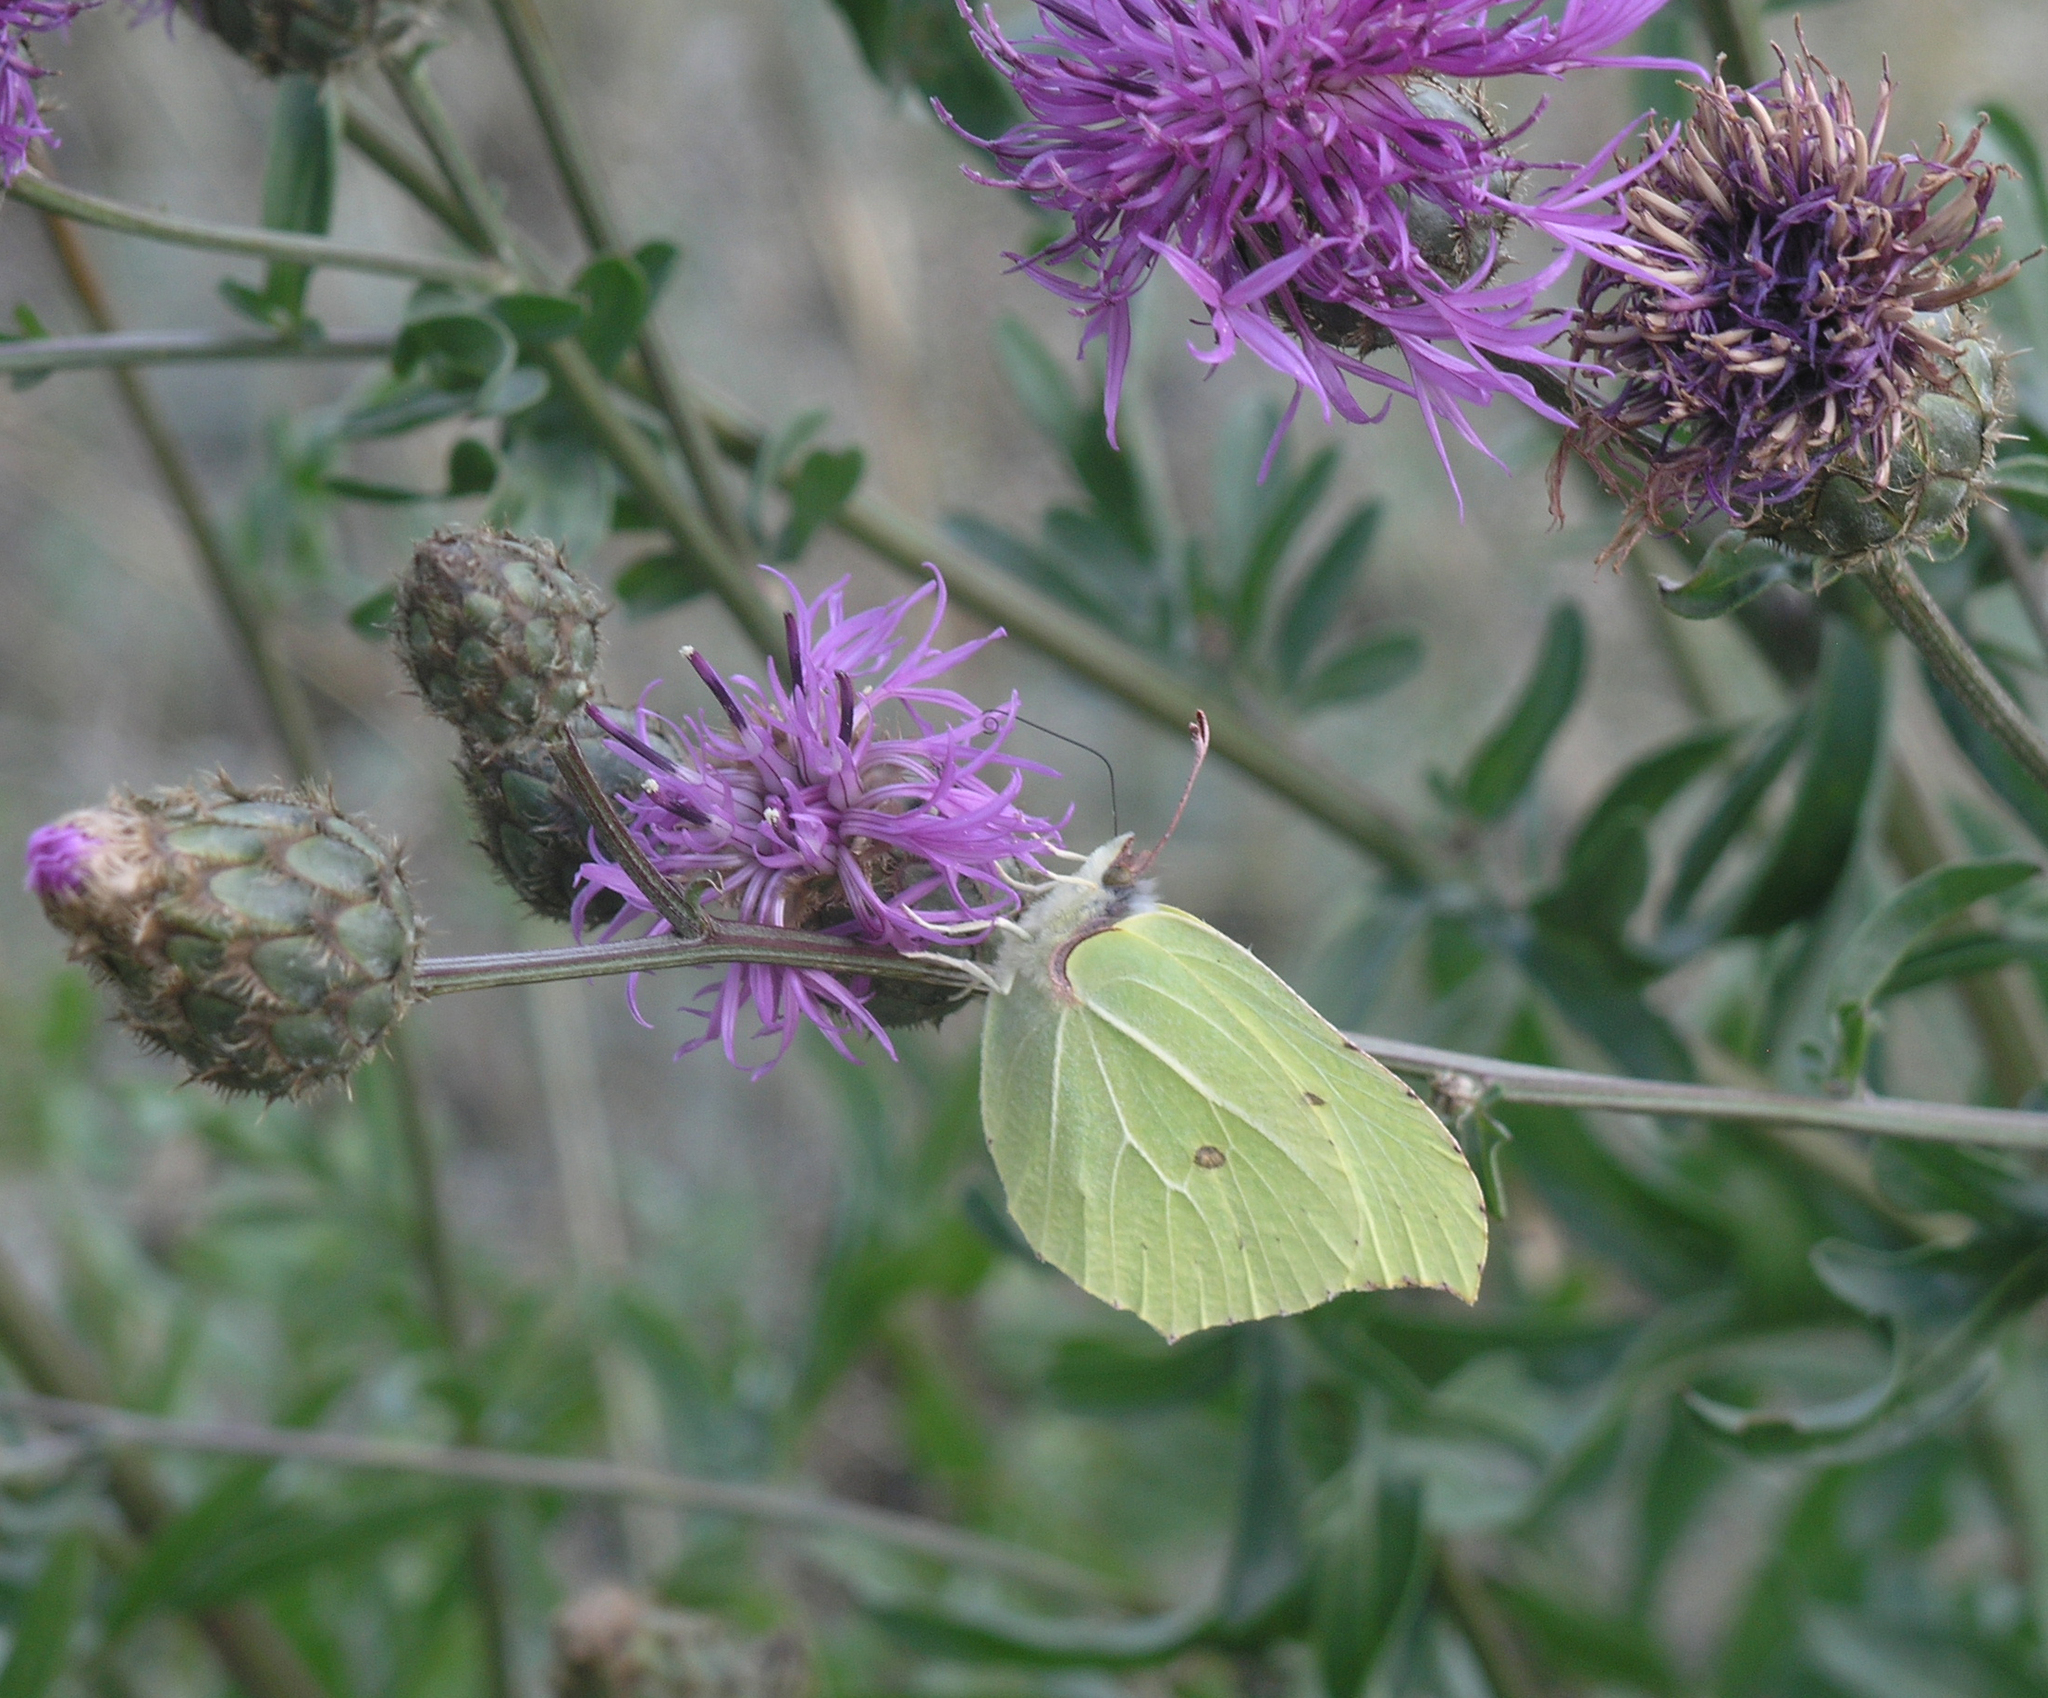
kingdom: Animalia
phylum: Arthropoda
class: Insecta
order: Lepidoptera
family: Pieridae
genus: Gonepteryx
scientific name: Gonepteryx rhamni
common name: Brimstone
